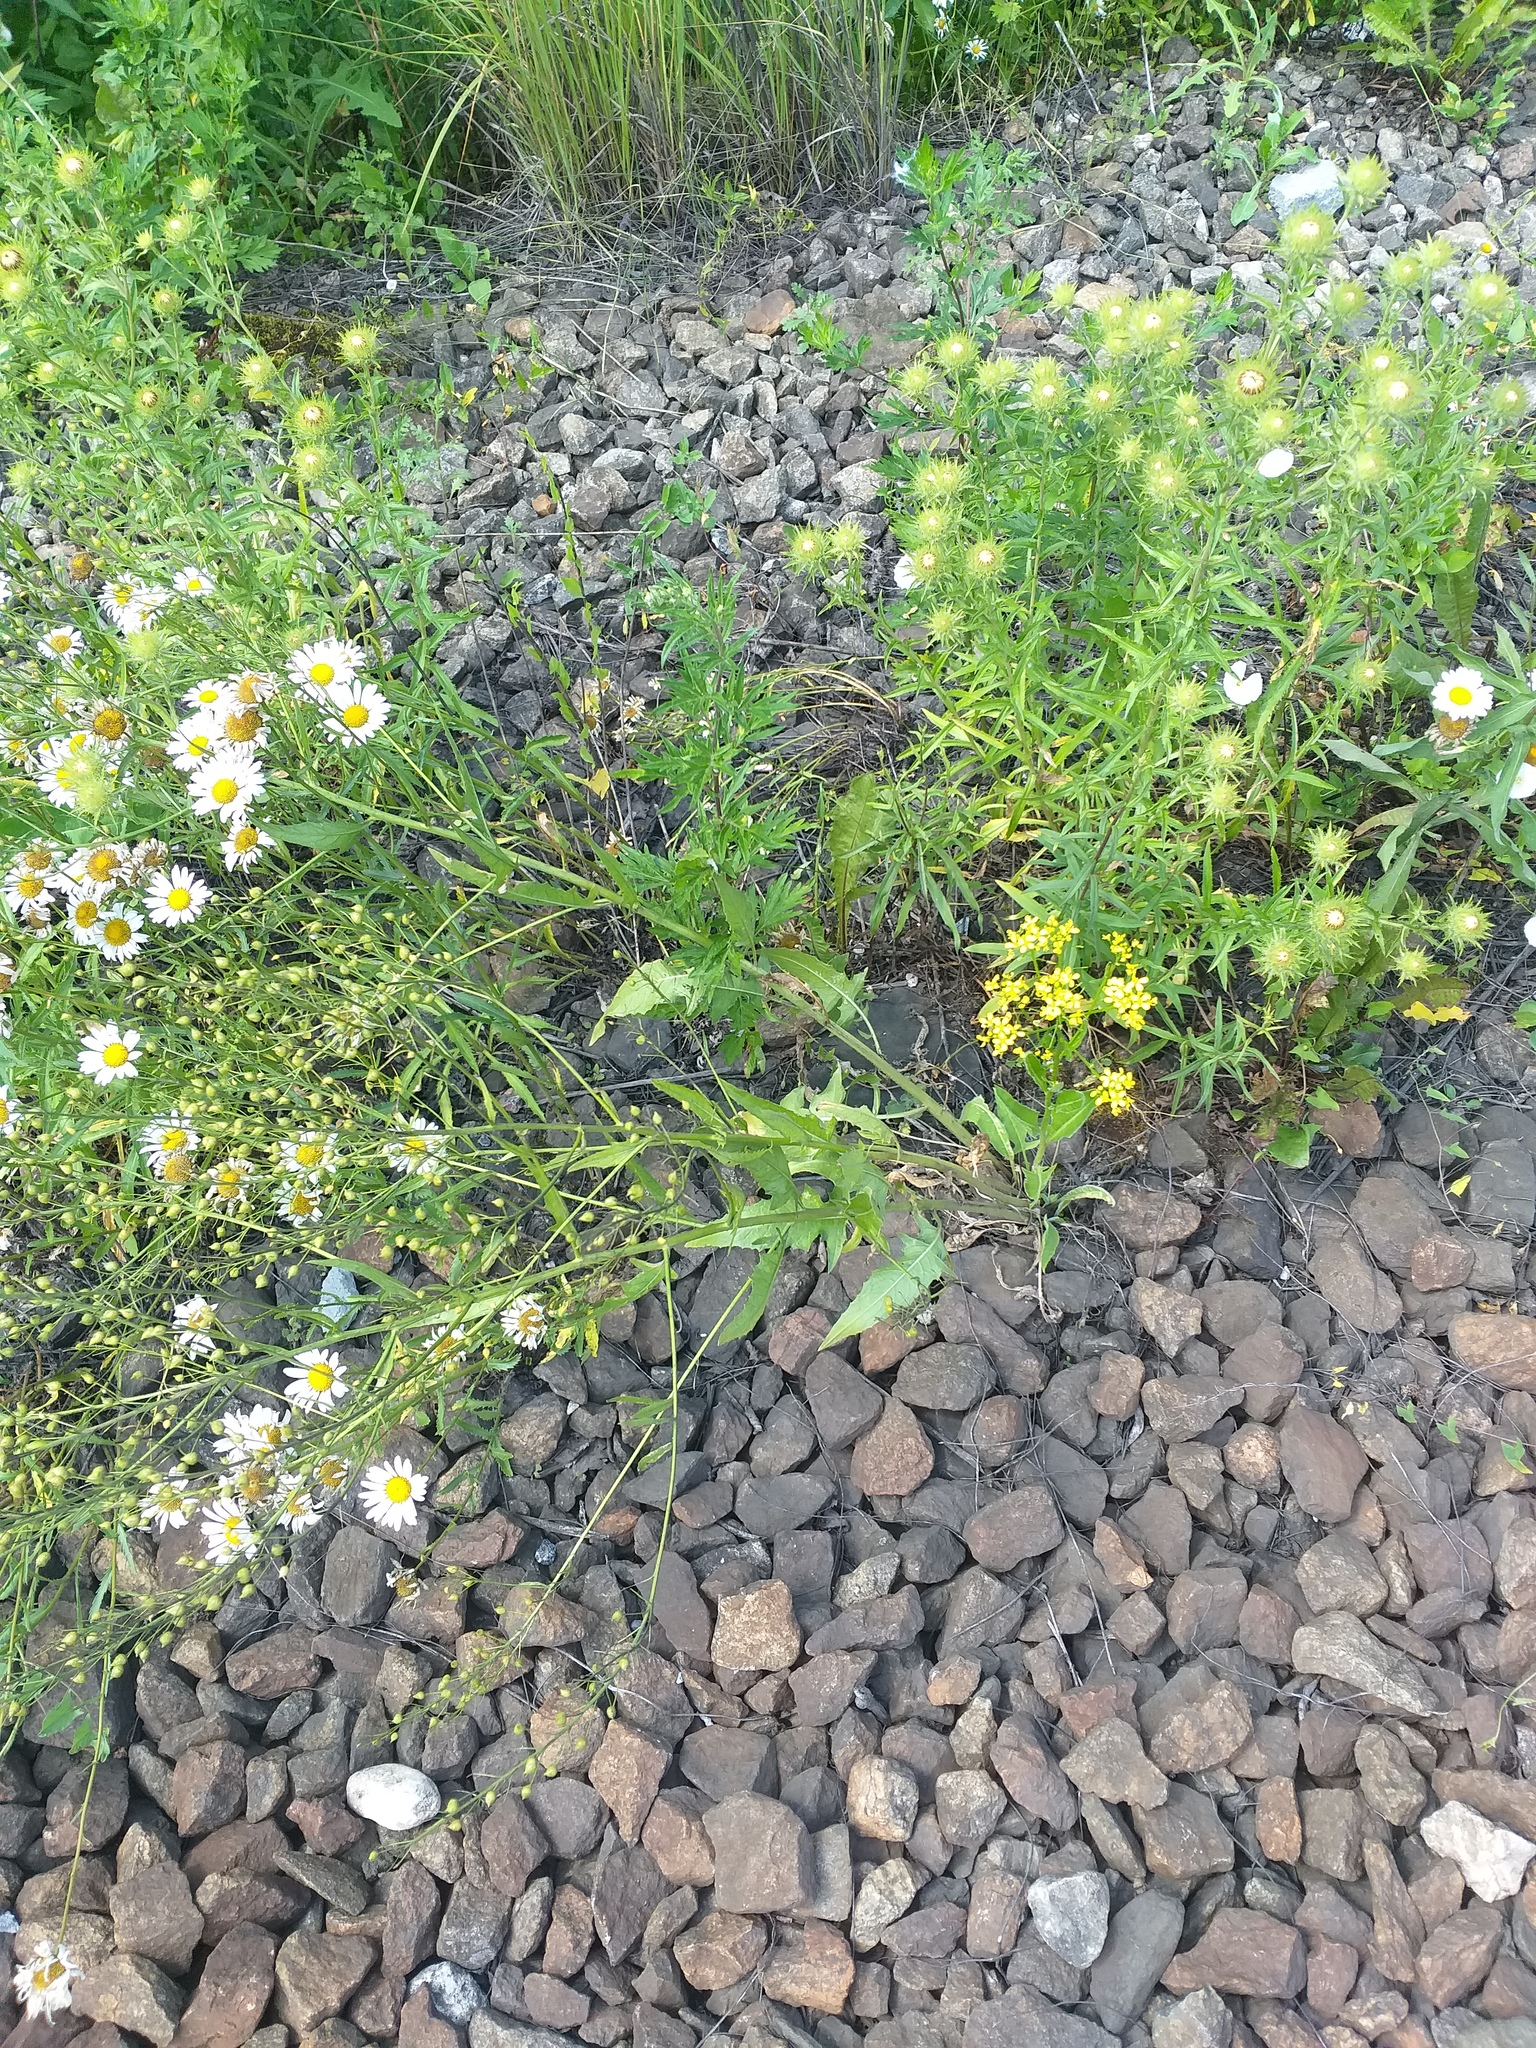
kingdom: Plantae
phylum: Tracheophyta
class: Magnoliopsida
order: Brassicales
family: Brassicaceae
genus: Bunias
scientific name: Bunias orientalis
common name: Warty-cabbage
